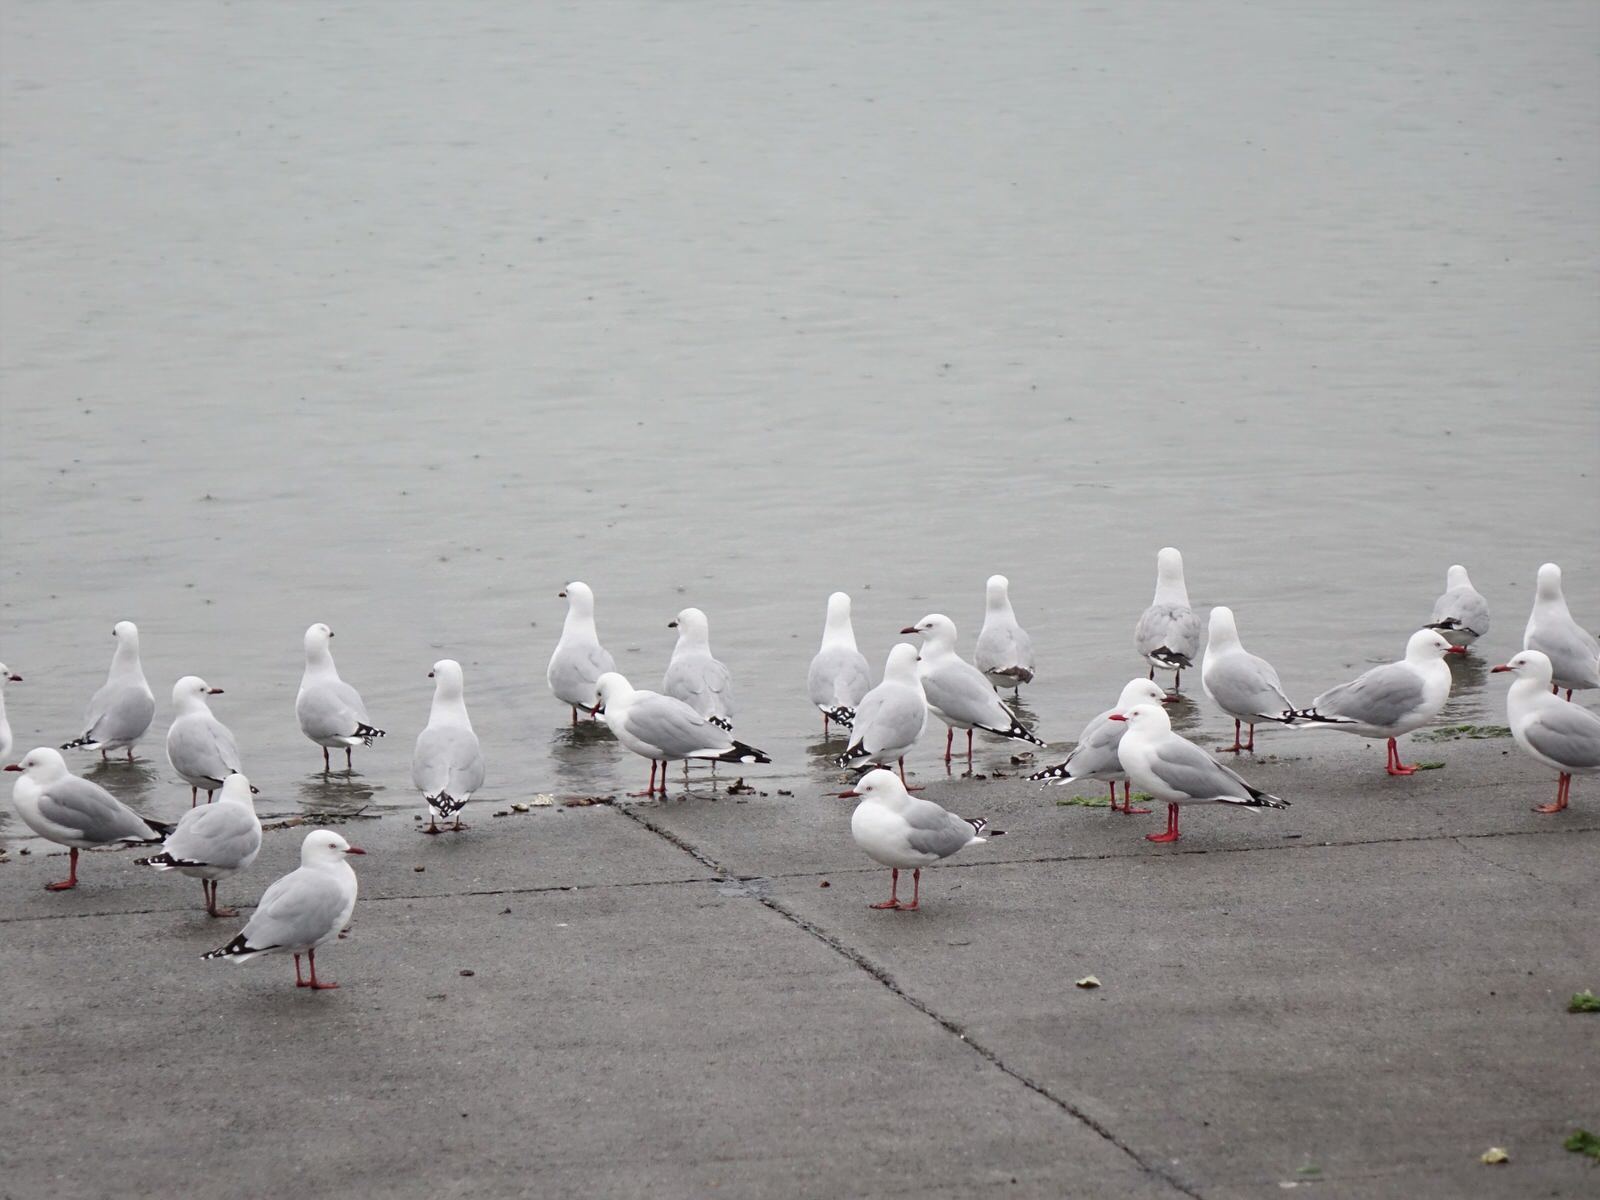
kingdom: Animalia
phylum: Chordata
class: Aves
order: Charadriiformes
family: Laridae
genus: Chroicocephalus
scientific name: Chroicocephalus novaehollandiae
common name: Silver gull
